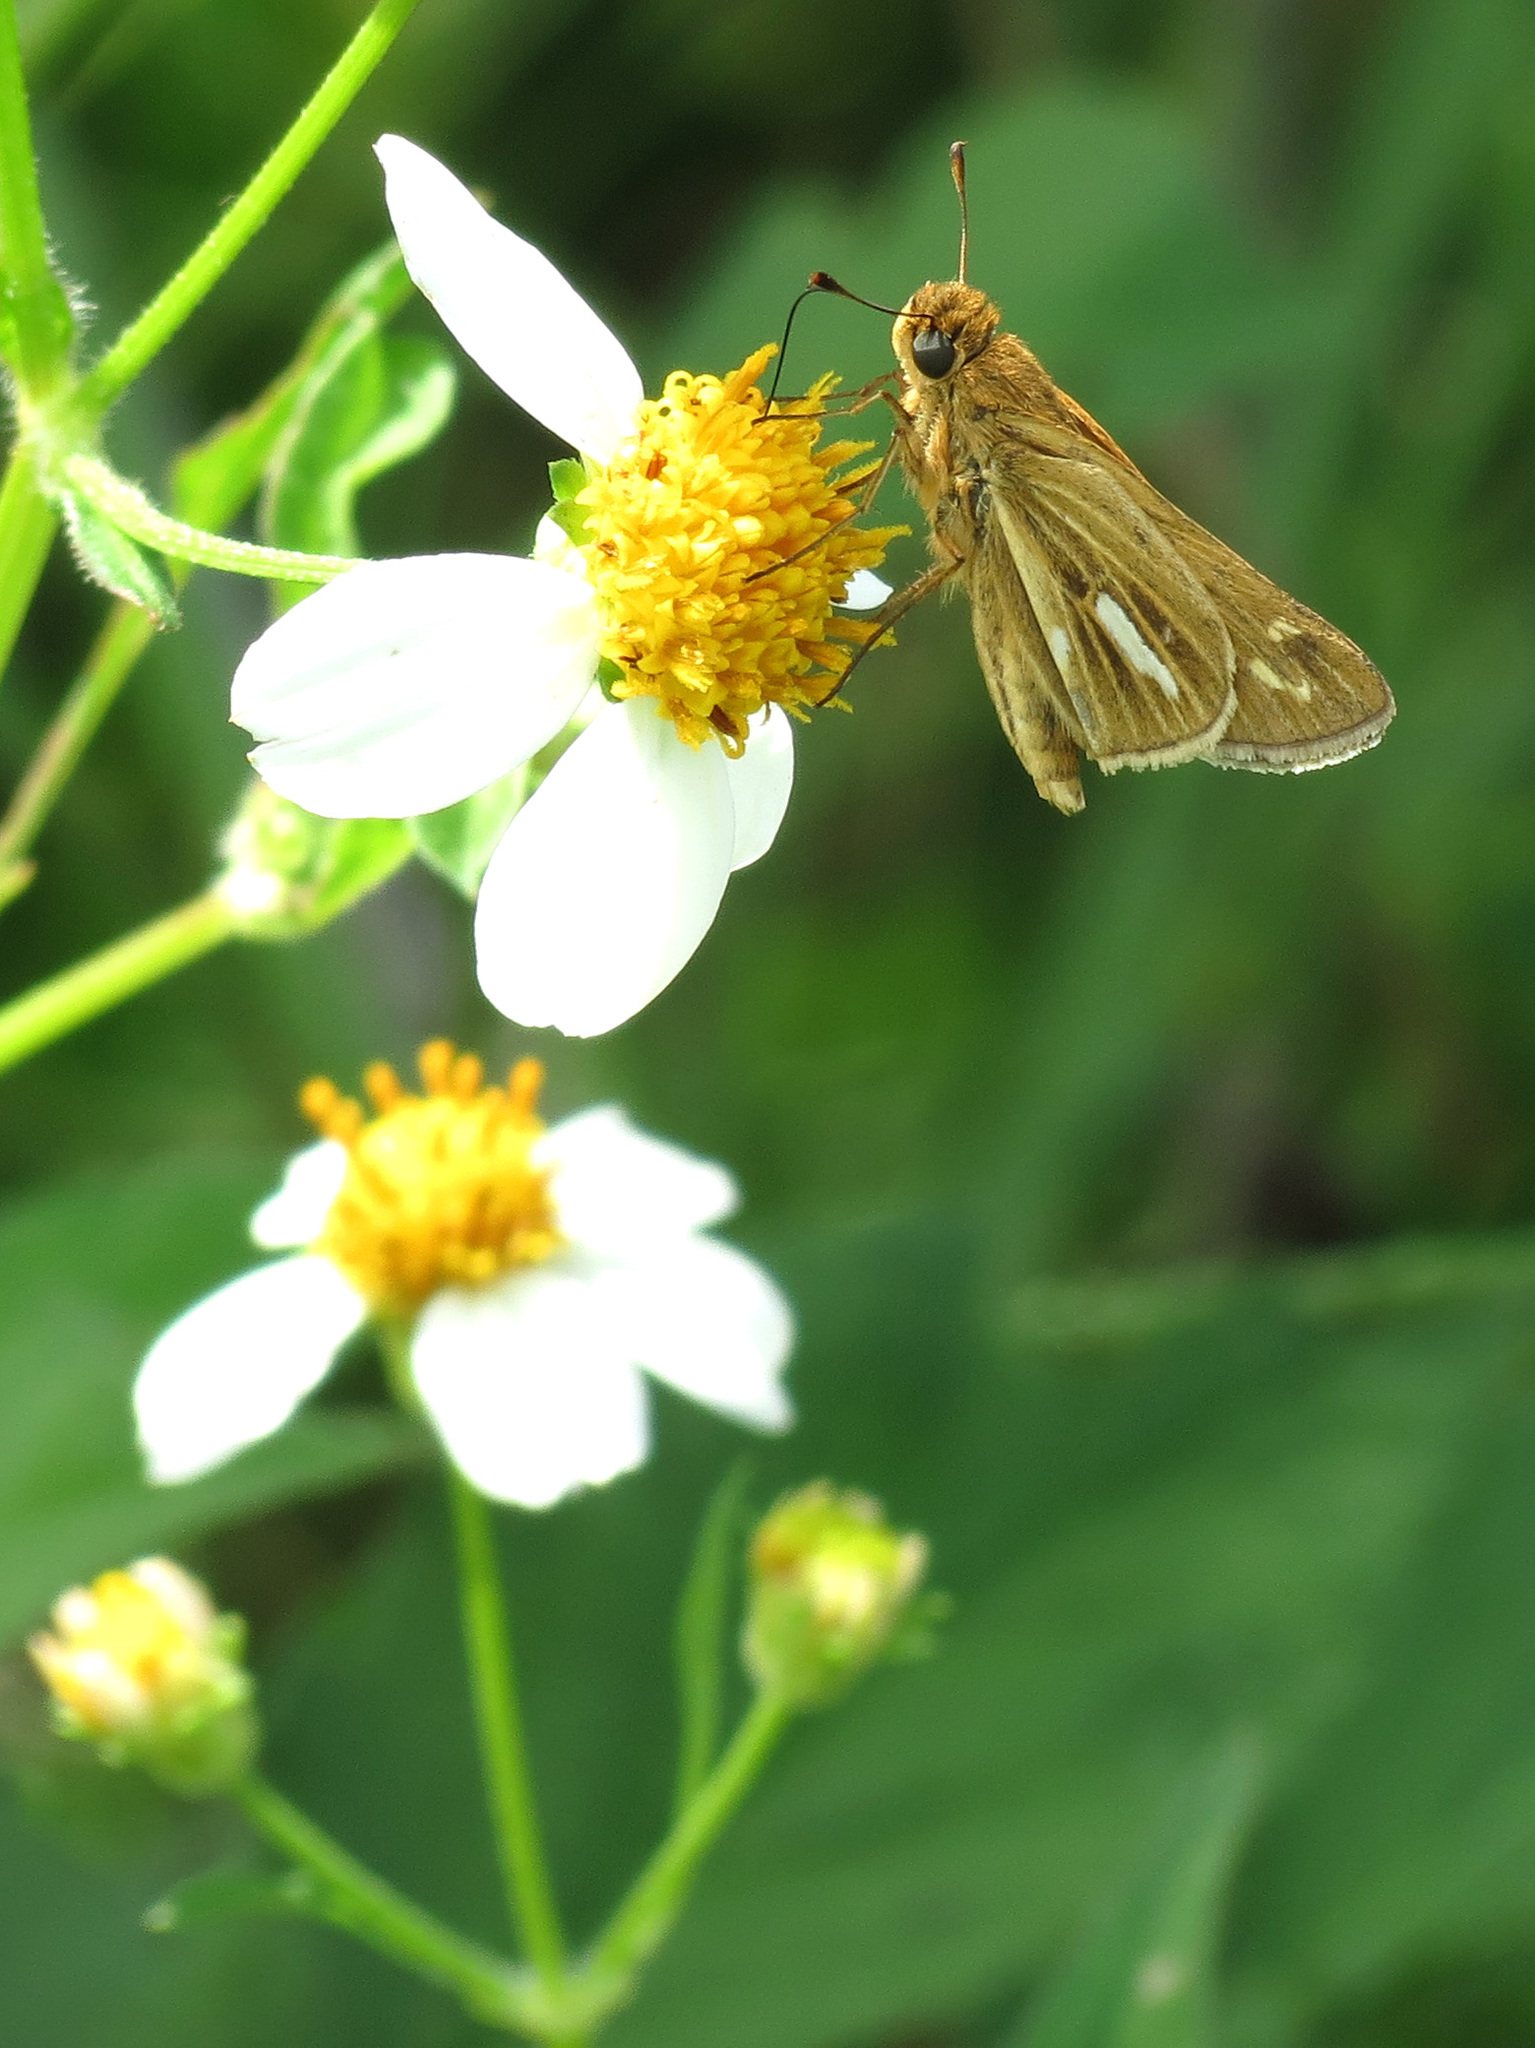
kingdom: Animalia
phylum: Arthropoda
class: Insecta
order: Lepidoptera
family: Hesperiidae
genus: Panoquina
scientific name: Panoquina panoquin
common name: Salt marsh skipper
